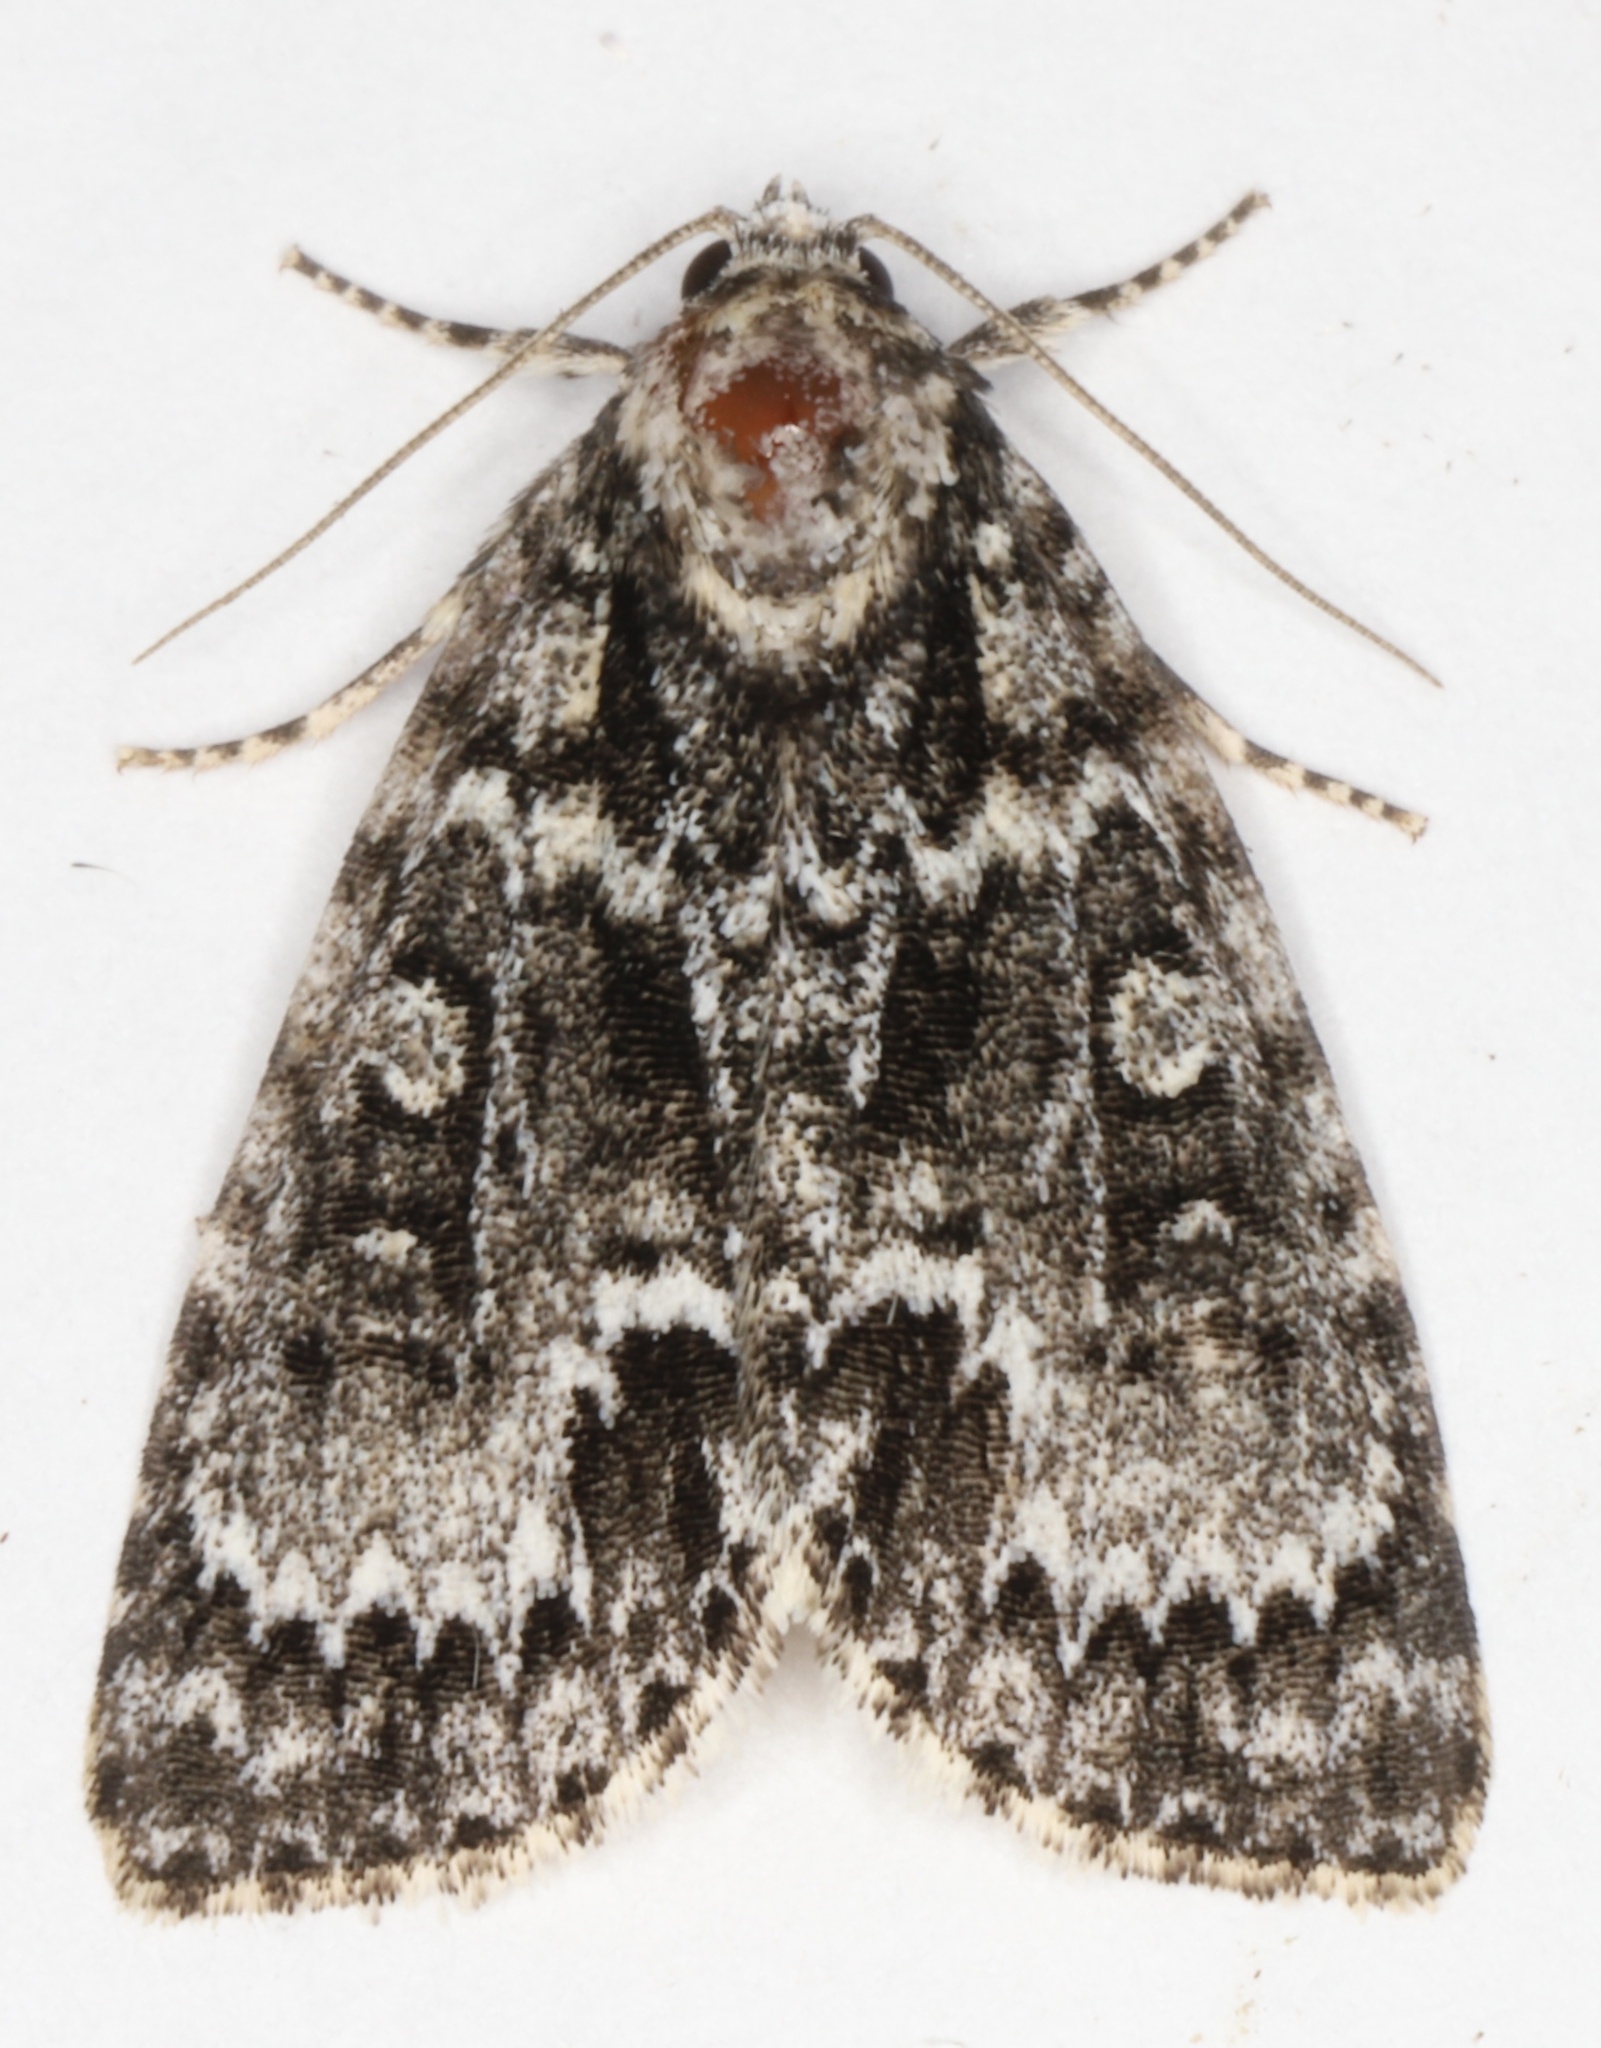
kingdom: Animalia
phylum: Arthropoda
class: Insecta
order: Lepidoptera
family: Noctuidae
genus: Acronicta
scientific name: Acronicta fragilis
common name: Fragile dagger
